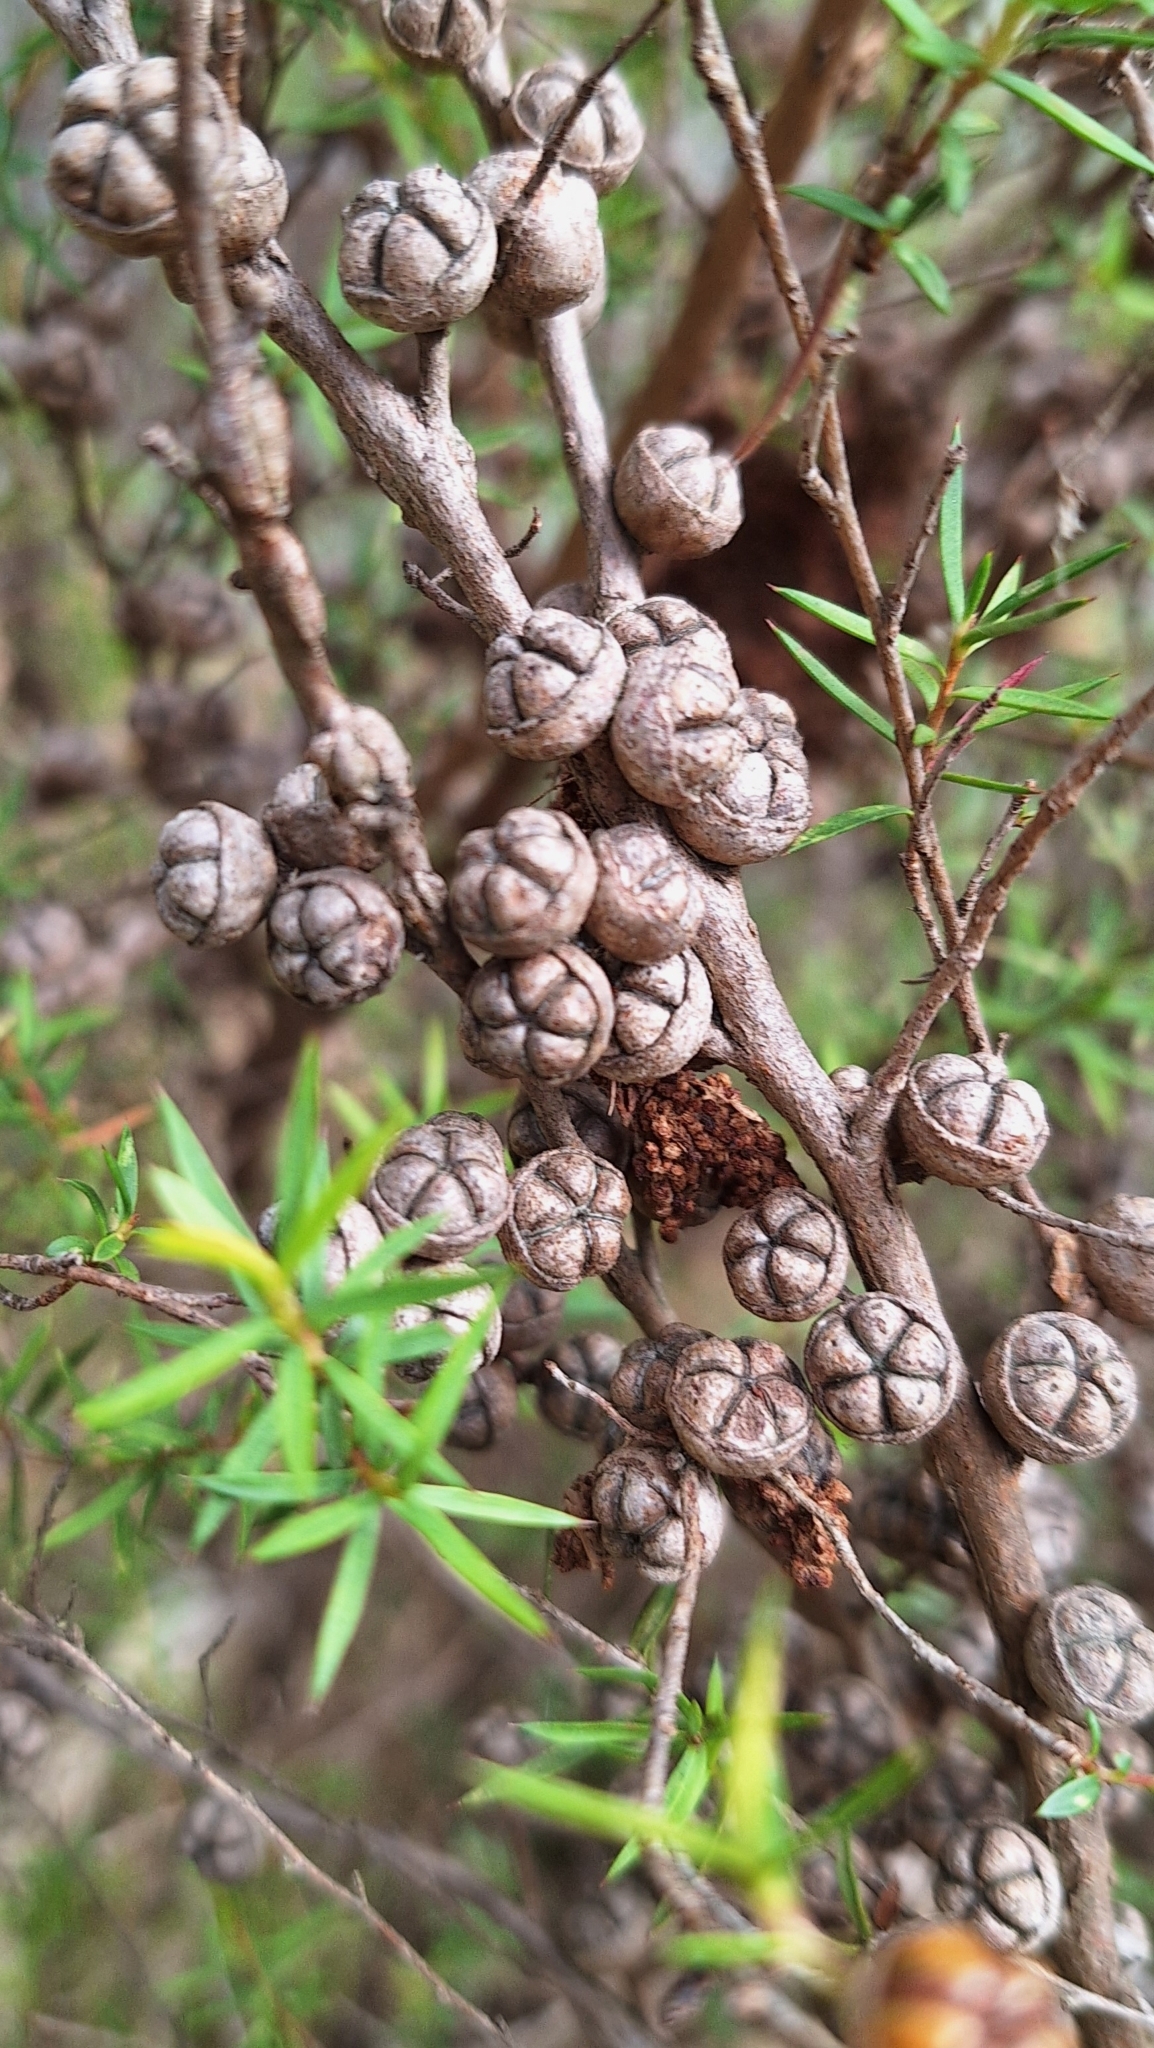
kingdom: Plantae
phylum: Tracheophyta
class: Magnoliopsida
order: Myrtales
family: Myrtaceae
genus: Leptospermum
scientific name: Leptospermum continentale
